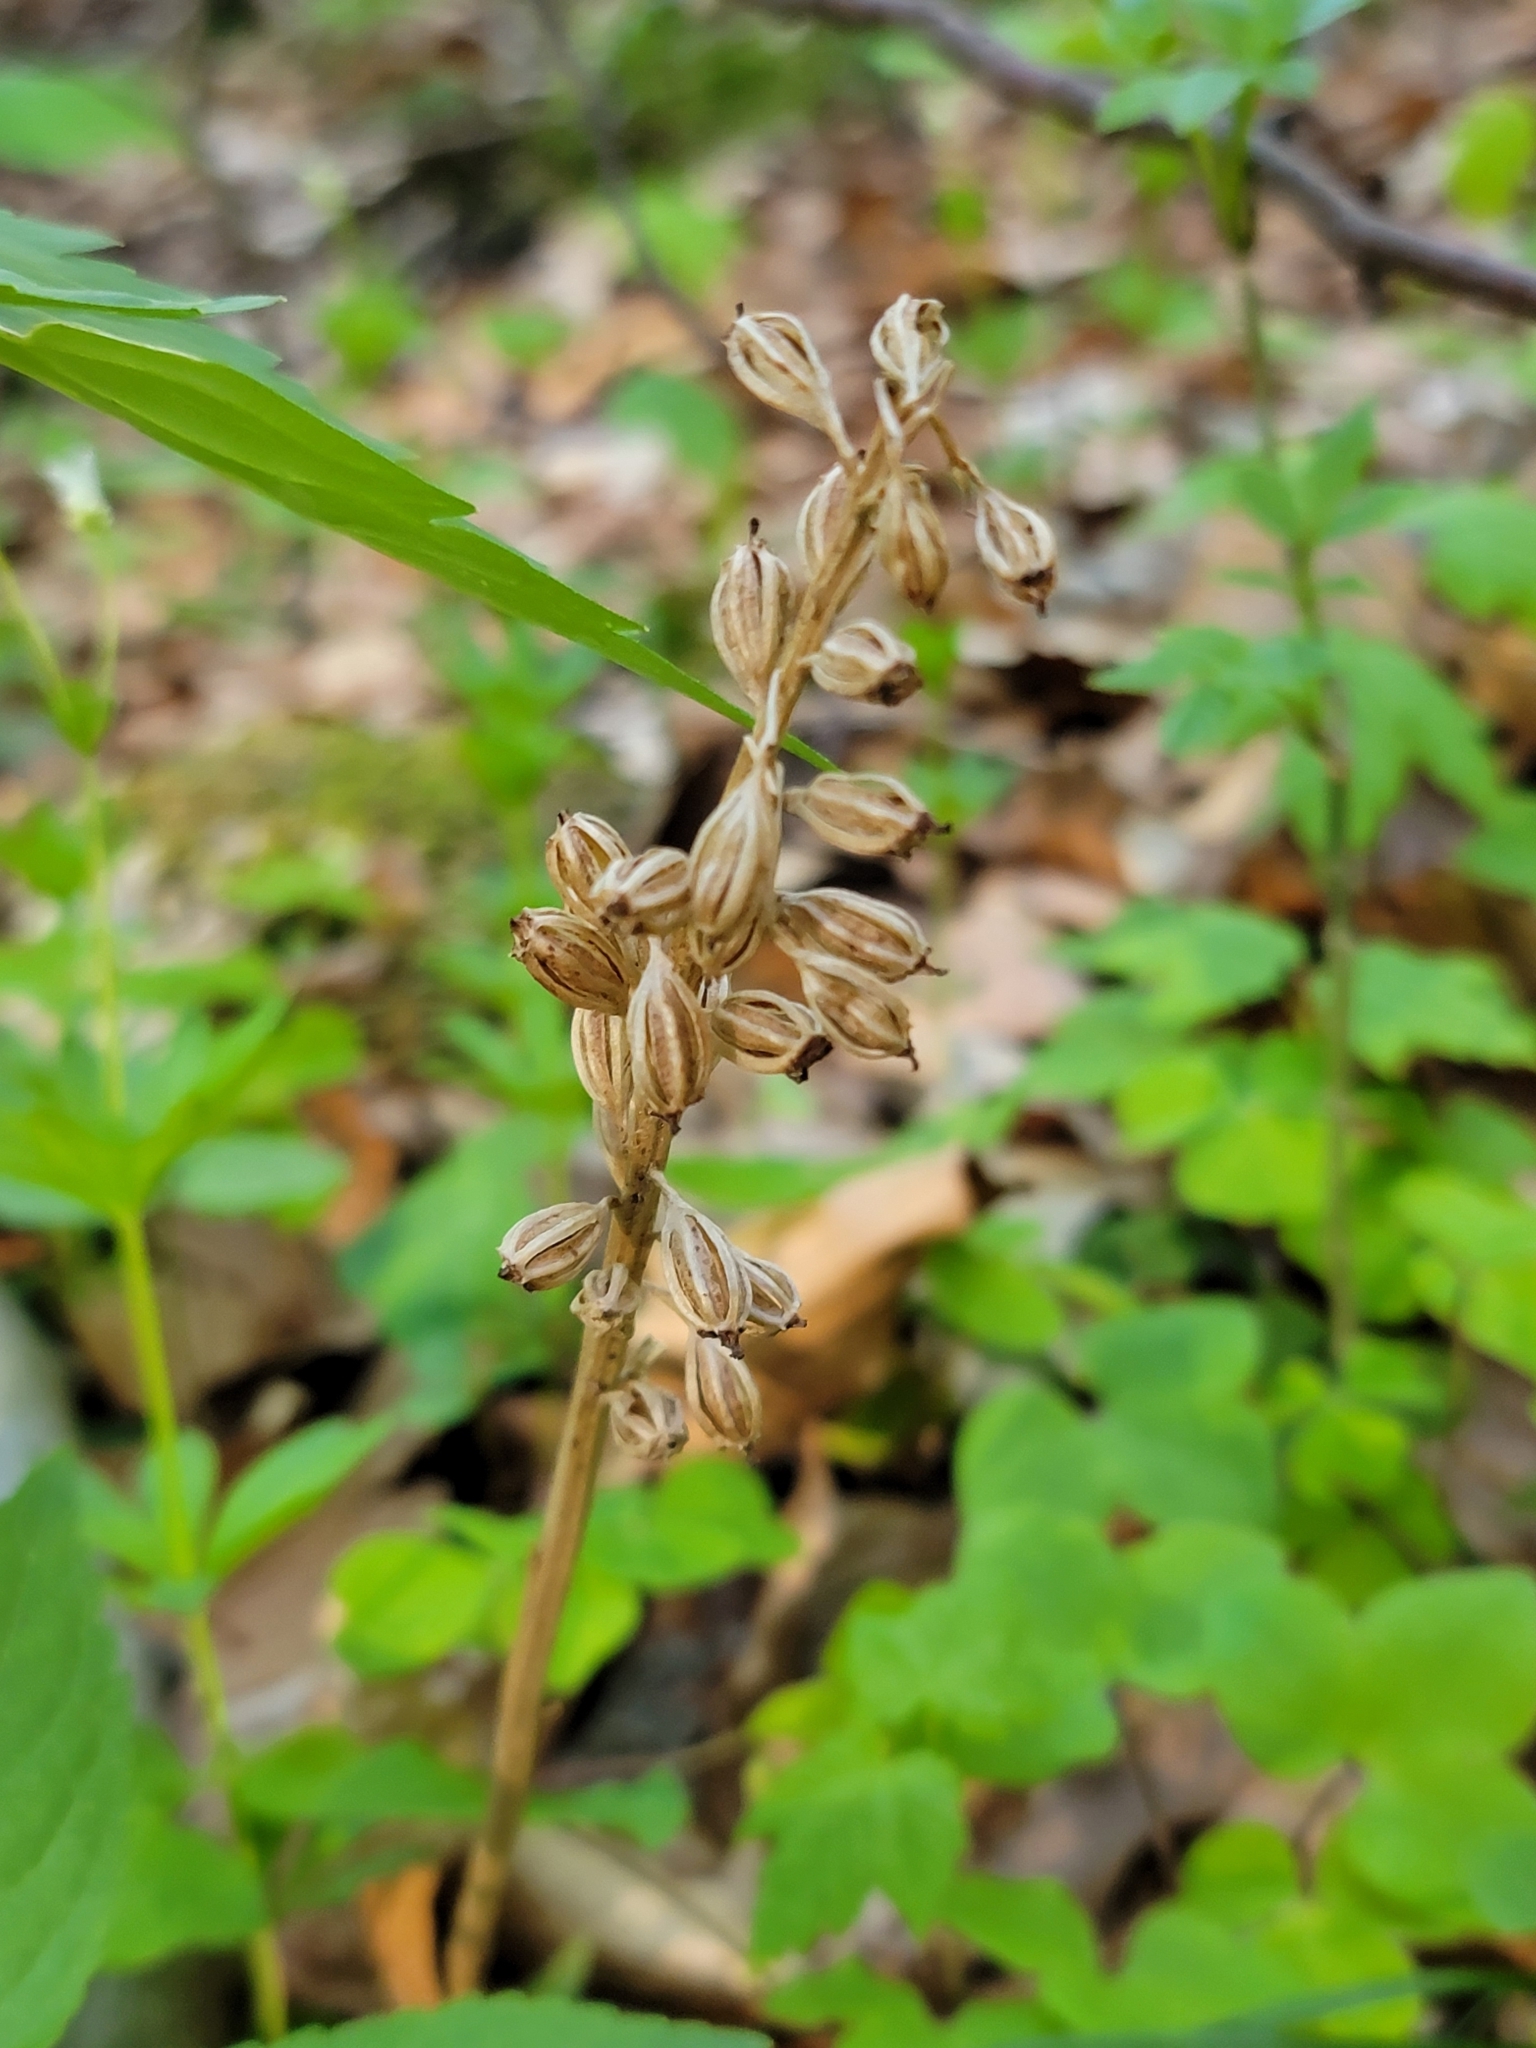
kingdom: Plantae
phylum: Tracheophyta
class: Liliopsida
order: Asparagales
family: Orchidaceae
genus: Neottia
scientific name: Neottia nidus-avis
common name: Bird's-nest orchid
